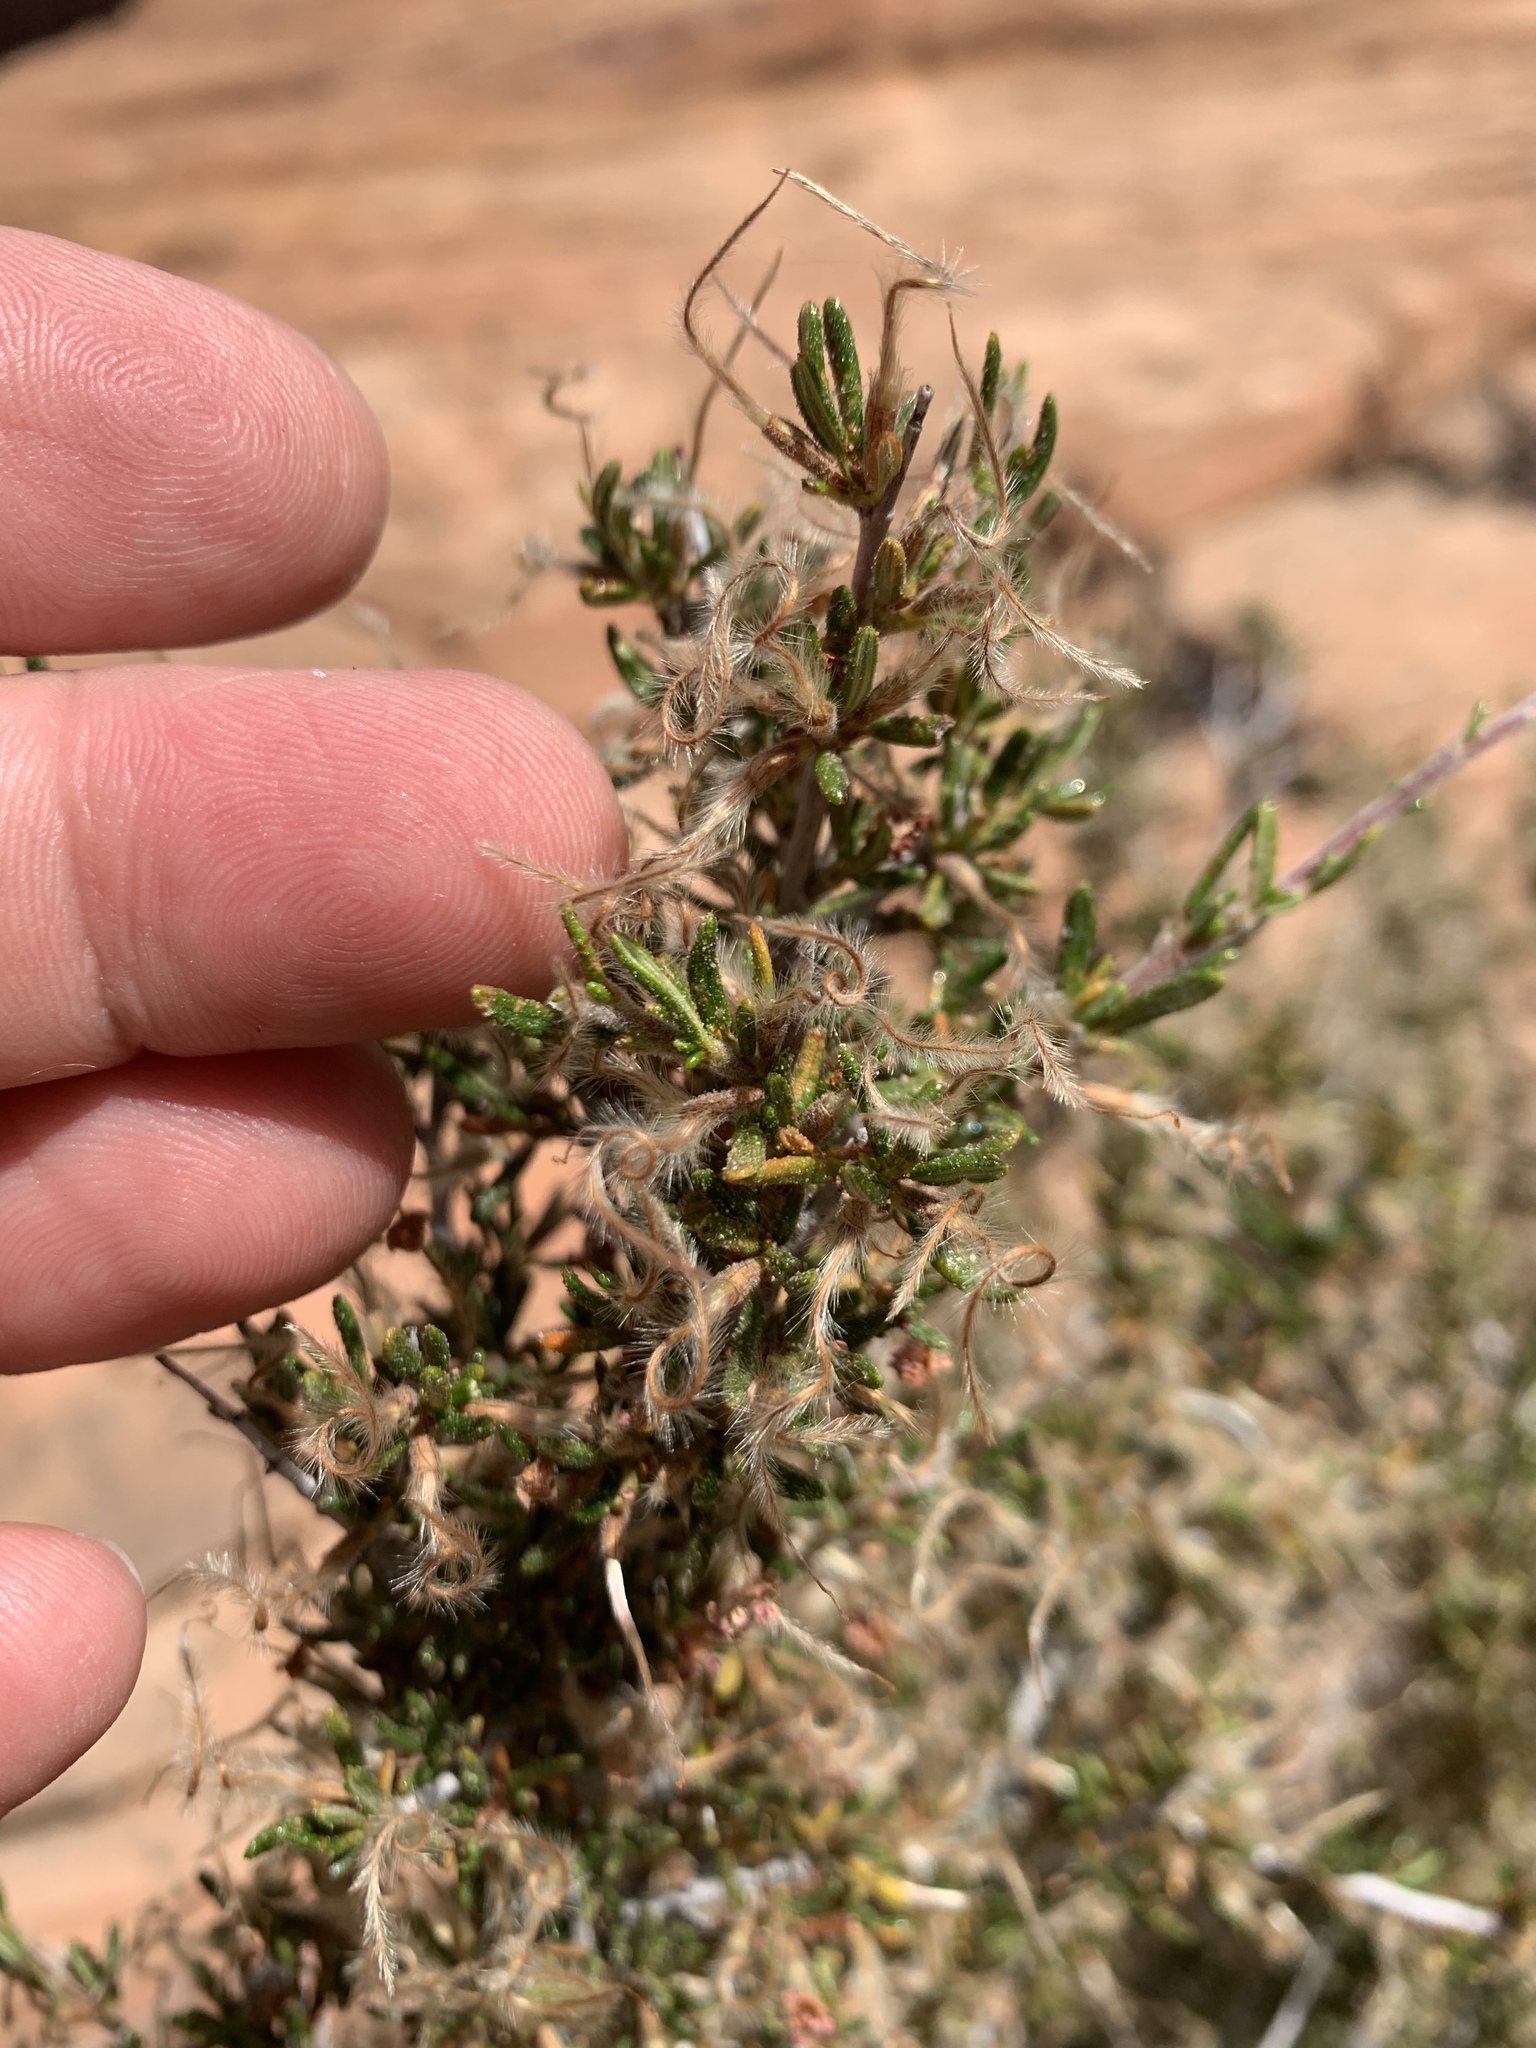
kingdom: Plantae
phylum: Tracheophyta
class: Magnoliopsida
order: Rosales
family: Rosaceae
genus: Cercocarpus
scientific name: Cercocarpus intricatus
